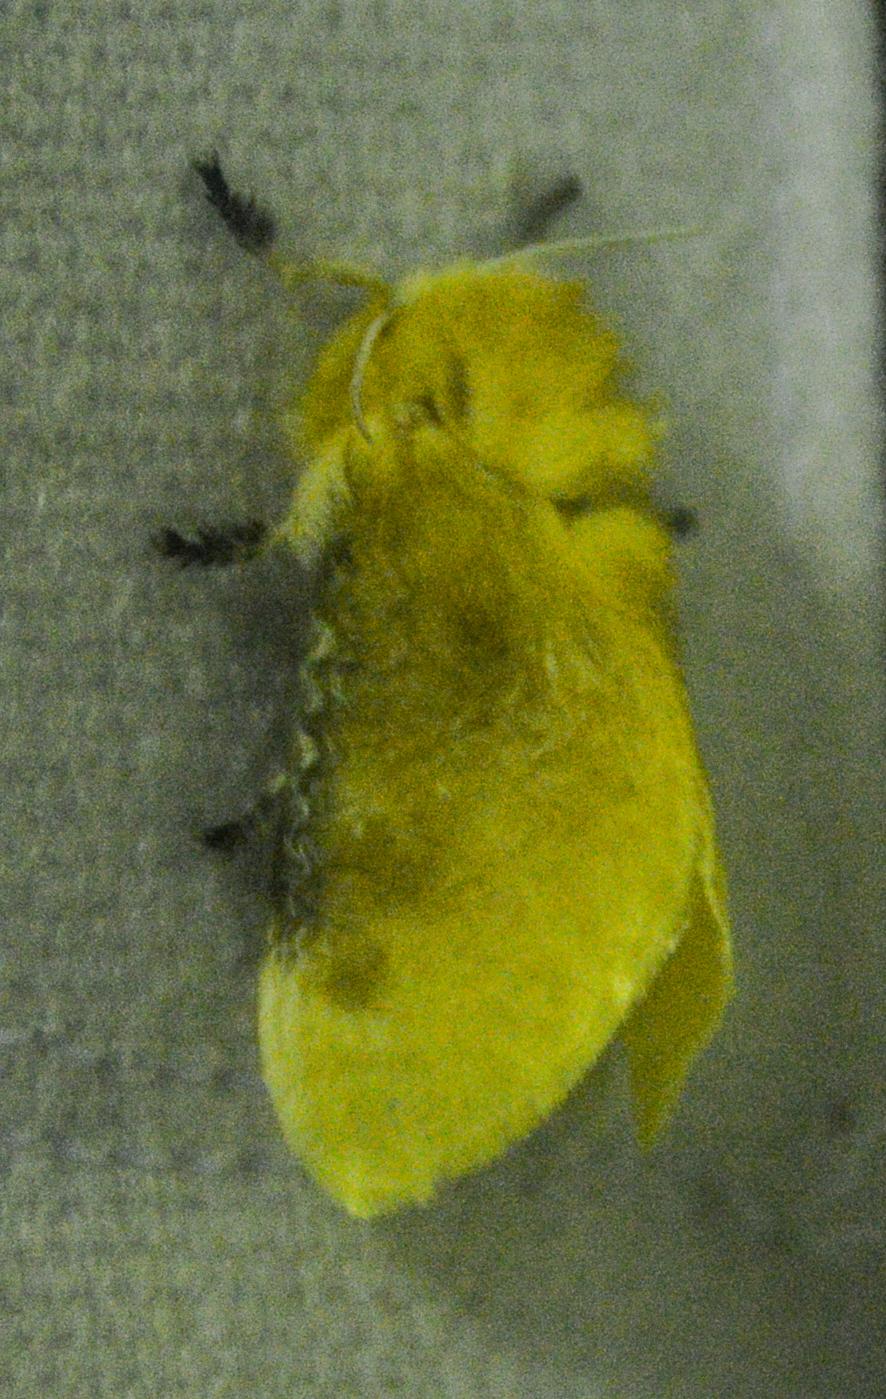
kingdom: Animalia
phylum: Arthropoda
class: Insecta
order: Lepidoptera
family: Megalopygidae
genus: Megalopyge
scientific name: Megalopyge opercularis
